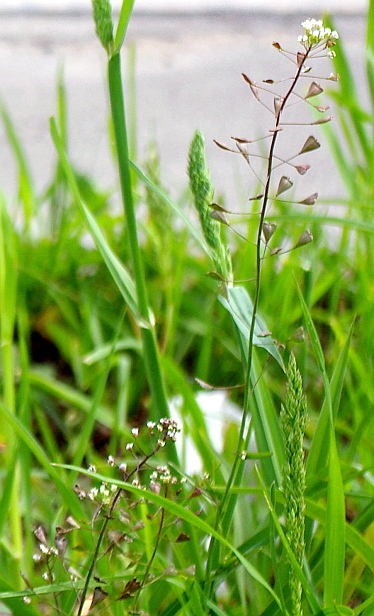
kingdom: Plantae
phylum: Tracheophyta
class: Magnoliopsida
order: Brassicales
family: Brassicaceae
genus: Capsella
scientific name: Capsella bursa-pastoris
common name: Shepherd's purse
